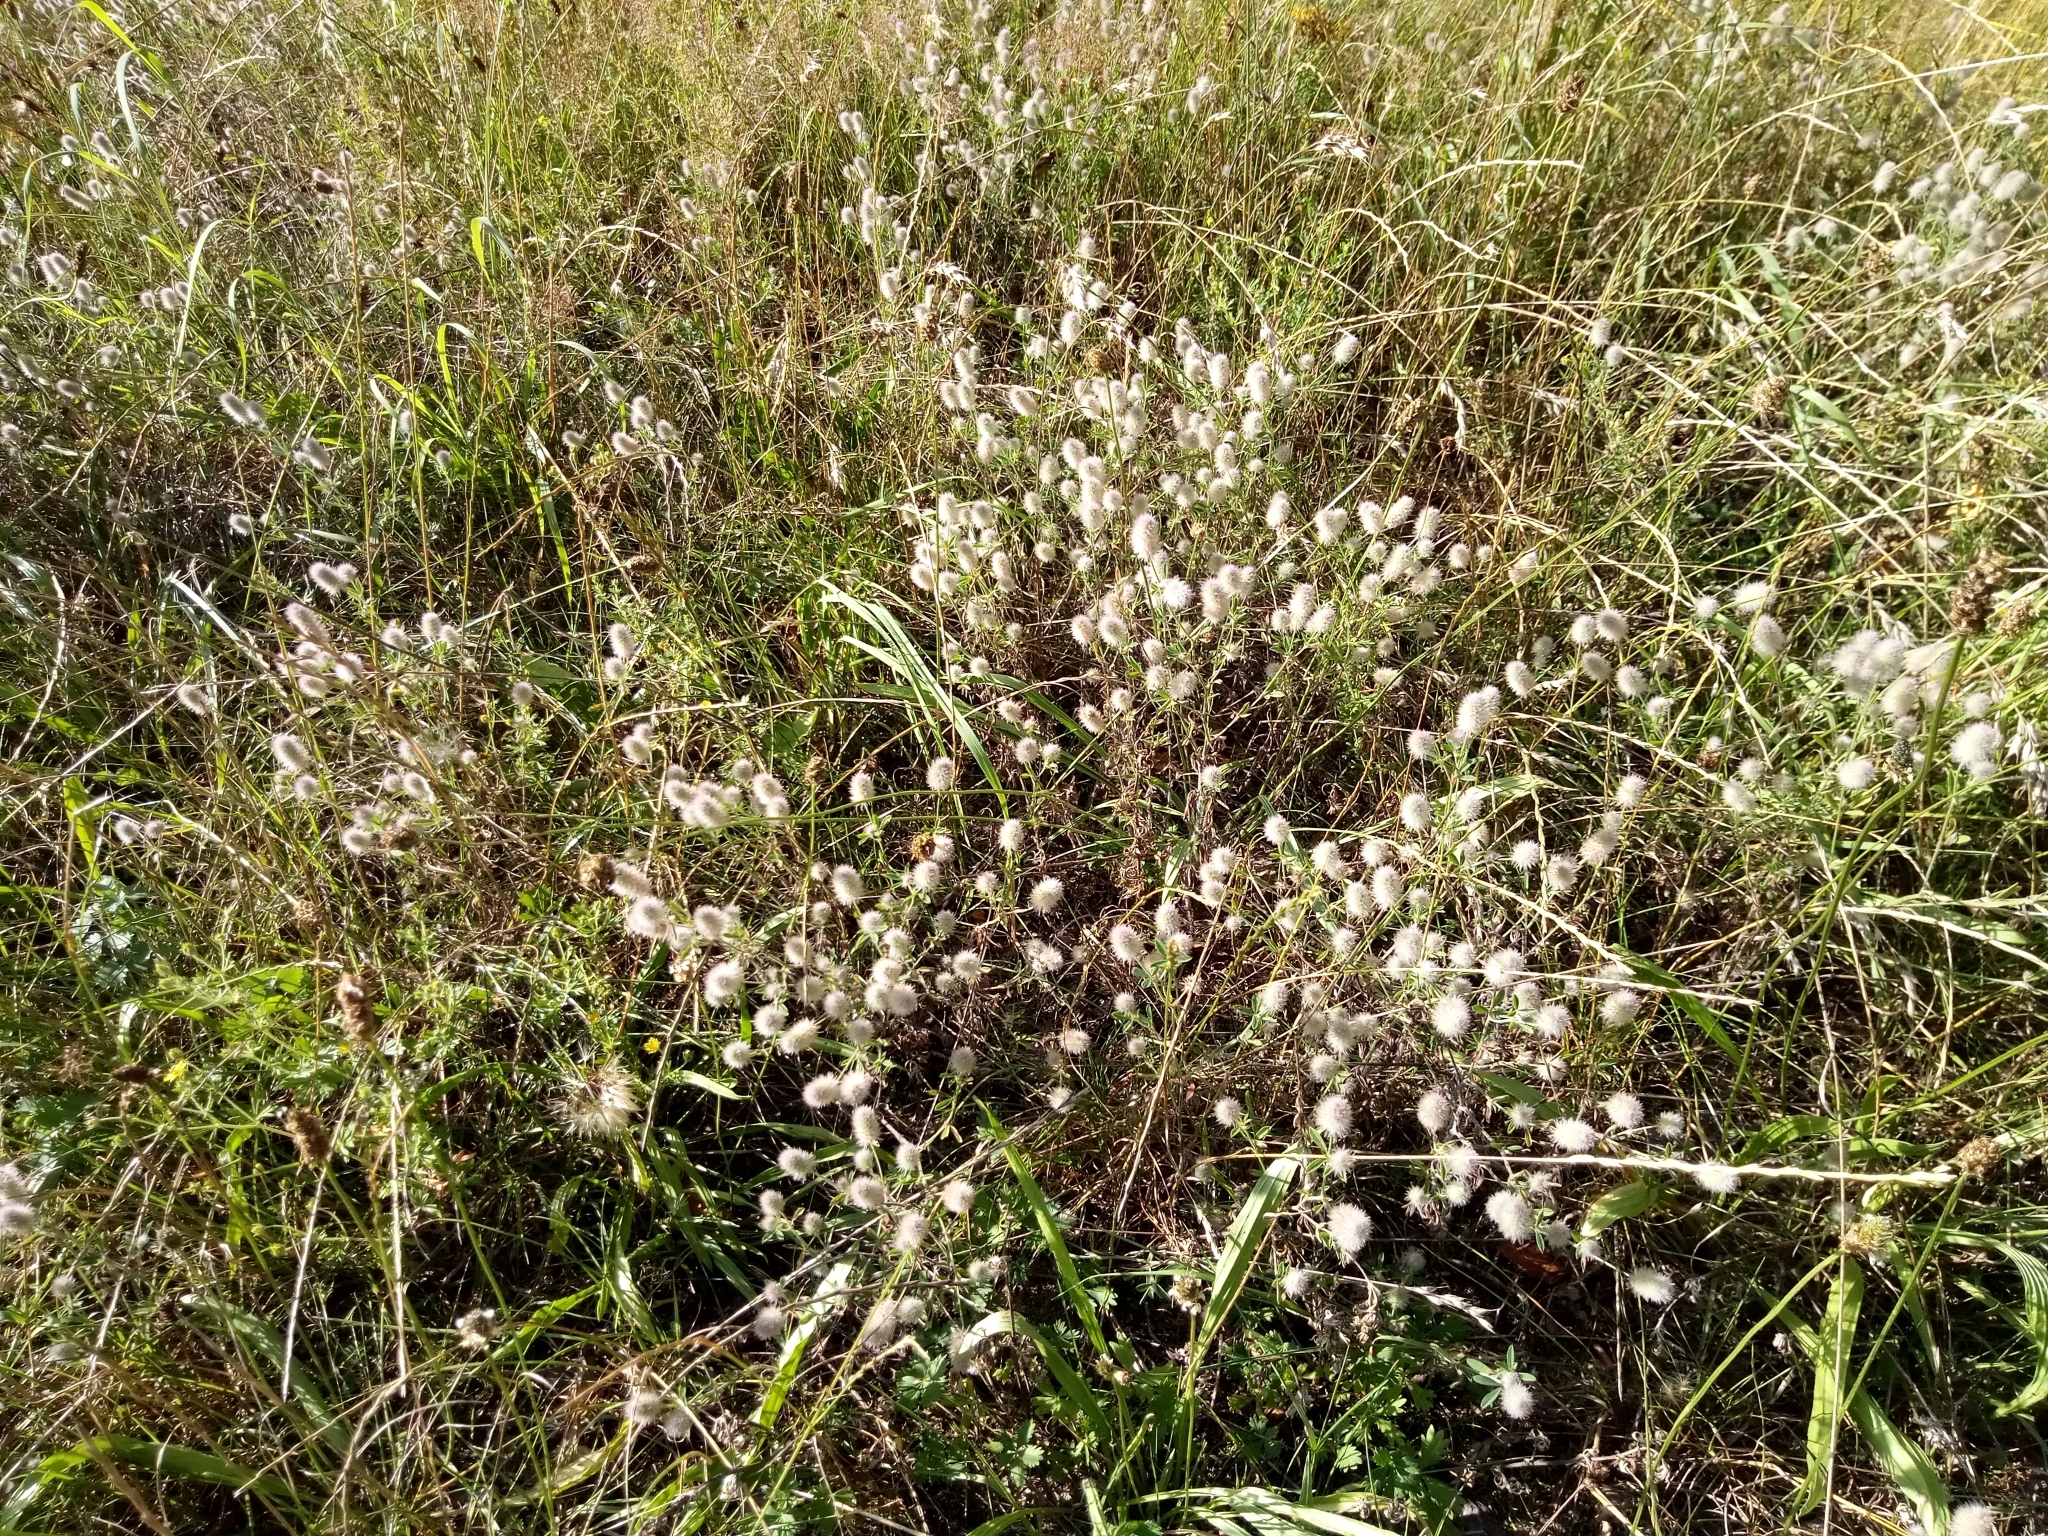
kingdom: Plantae
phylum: Tracheophyta
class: Magnoliopsida
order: Fabales
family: Fabaceae
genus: Trifolium
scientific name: Trifolium arvense
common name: Hare's-foot clover
